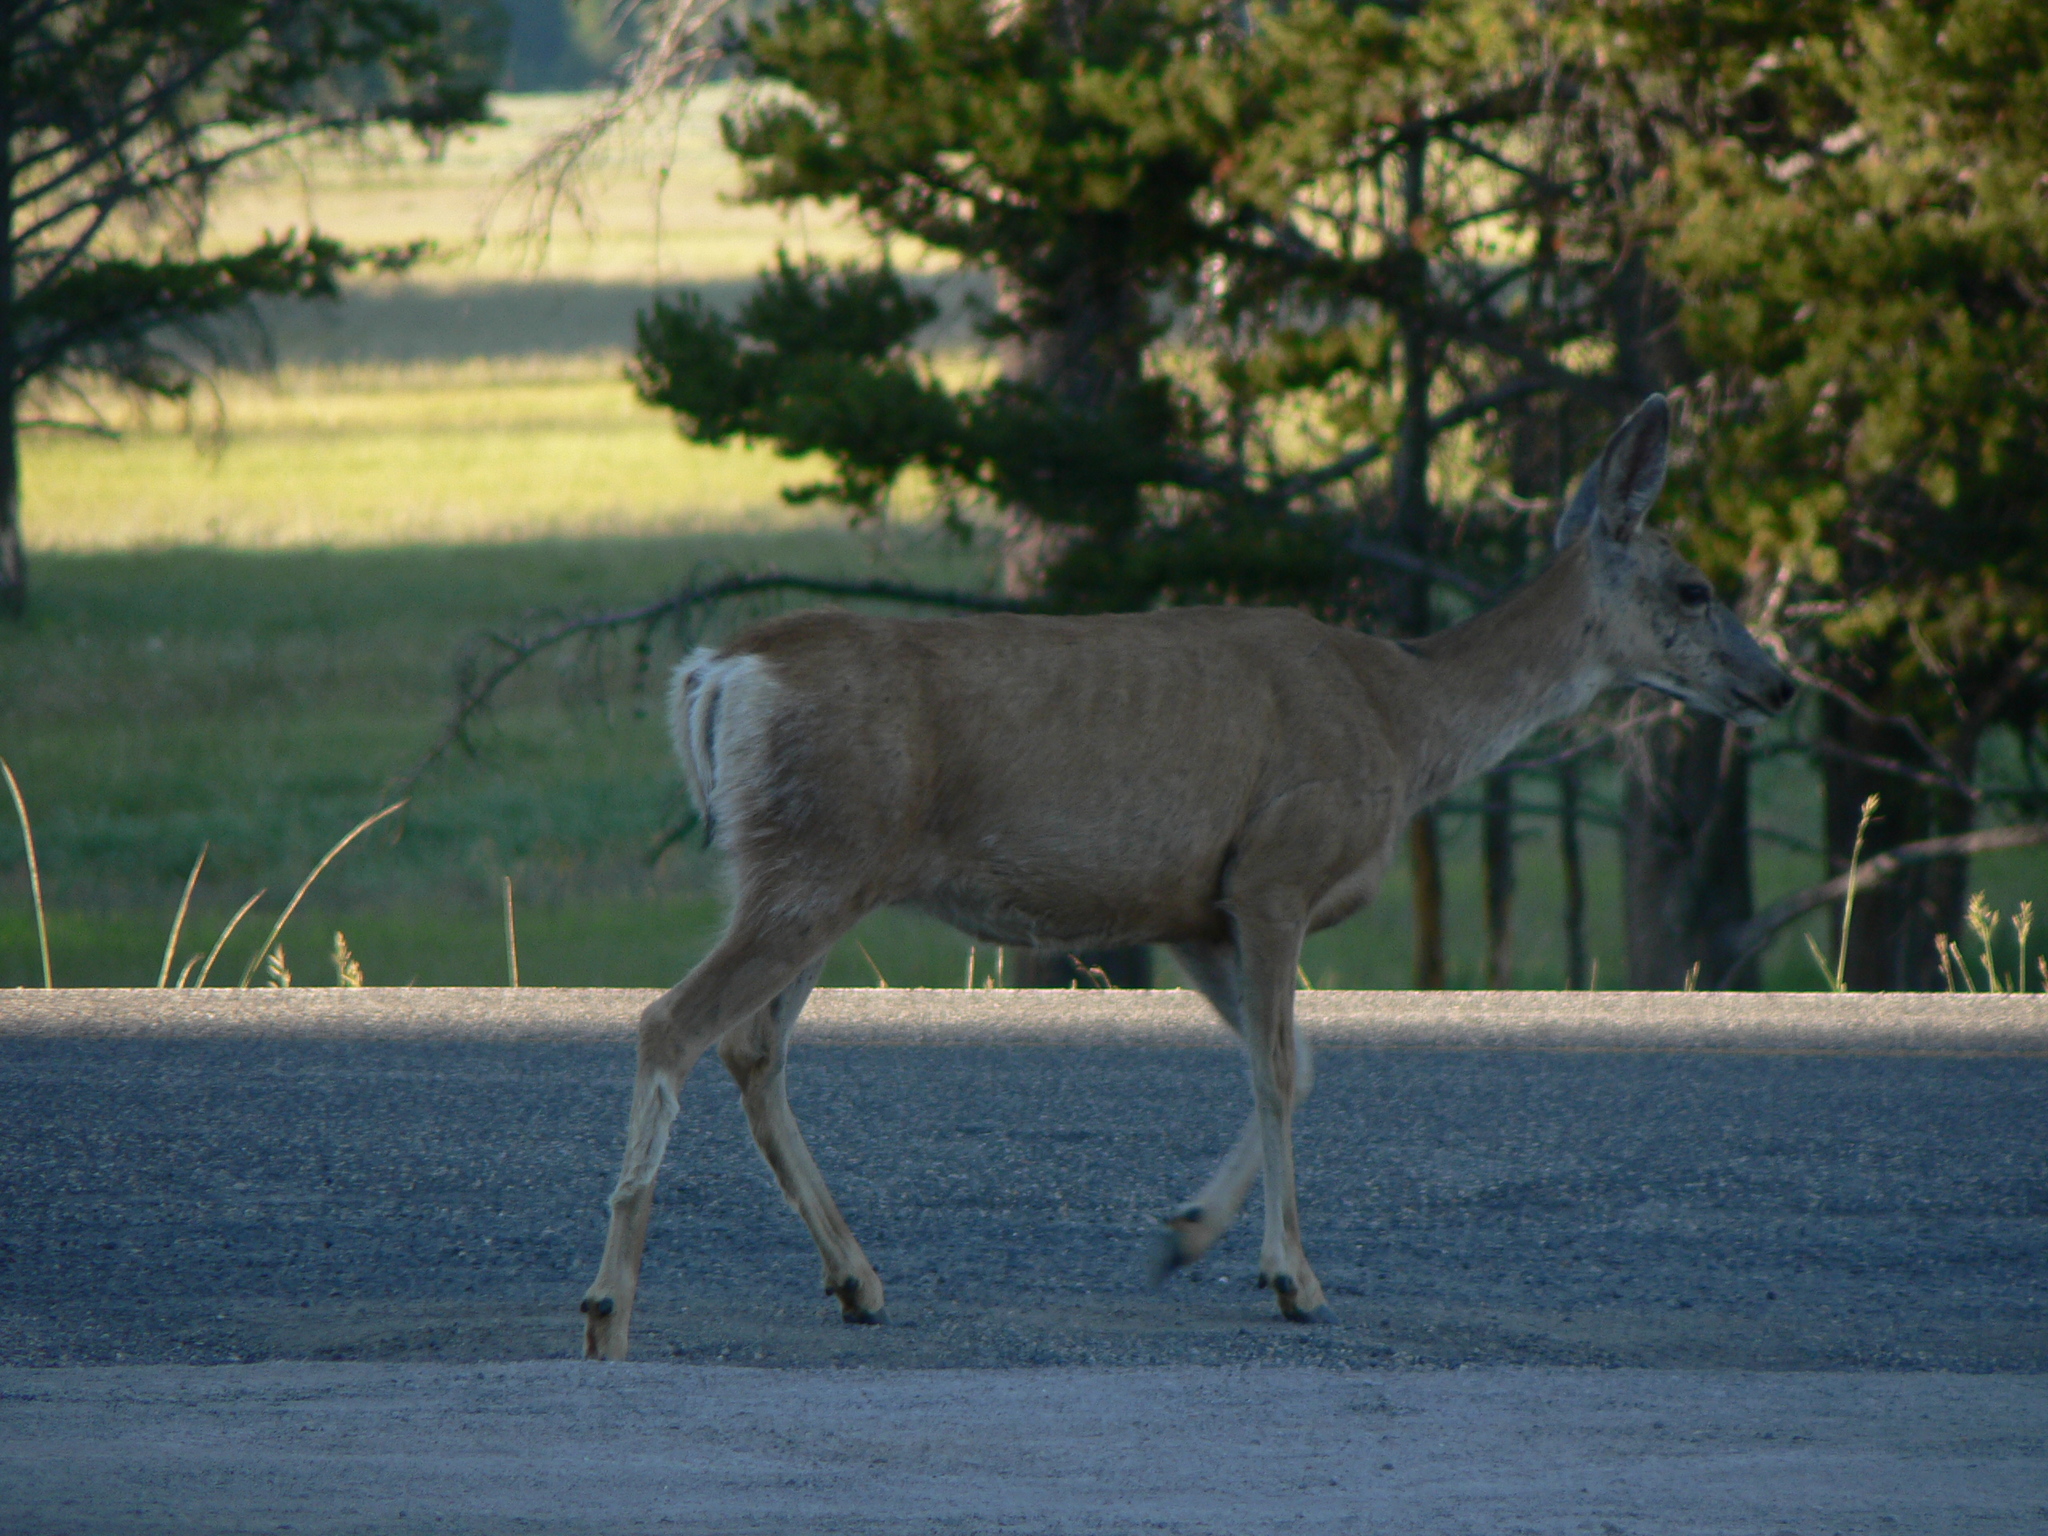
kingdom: Animalia
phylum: Chordata
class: Mammalia
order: Artiodactyla
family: Cervidae
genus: Odocoileus
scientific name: Odocoileus hemionus
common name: Mule deer
